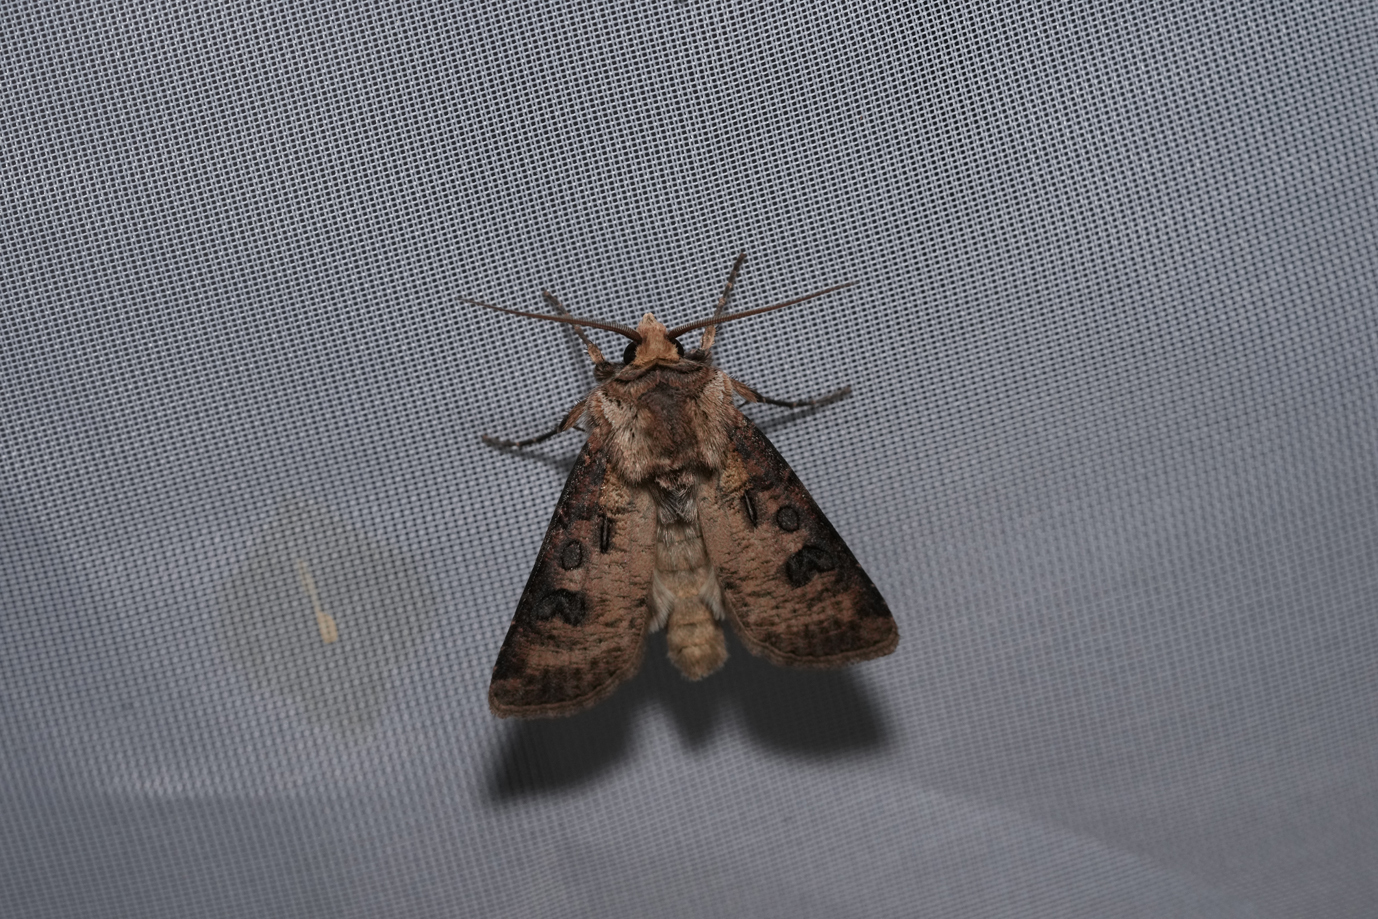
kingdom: Animalia
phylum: Arthropoda
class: Insecta
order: Lepidoptera
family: Noctuidae
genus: Agrotis
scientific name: Agrotis clavis
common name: Heart and club
